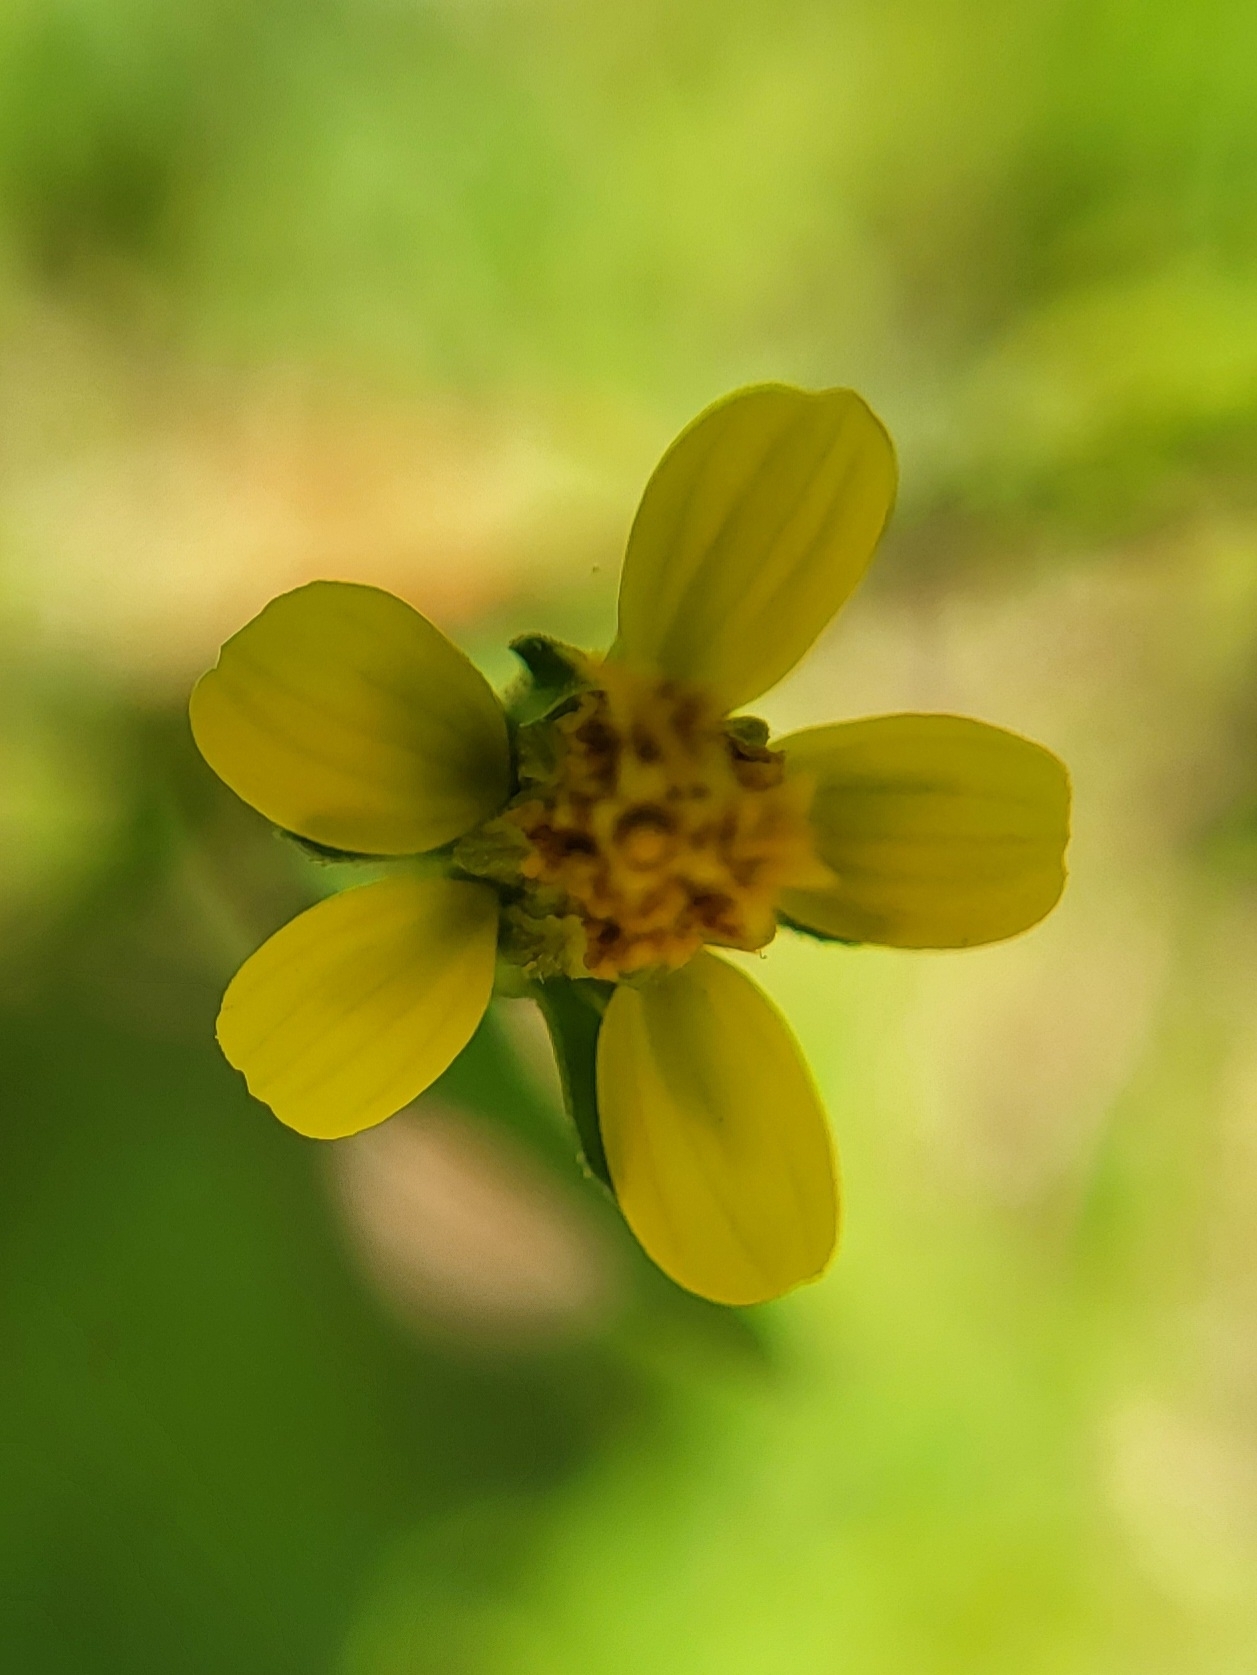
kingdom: Plantae
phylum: Tracheophyta
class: Magnoliopsida
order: Asterales
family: Asteraceae
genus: Bidens
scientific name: Bidens bipinnata
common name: Spanish-needles
